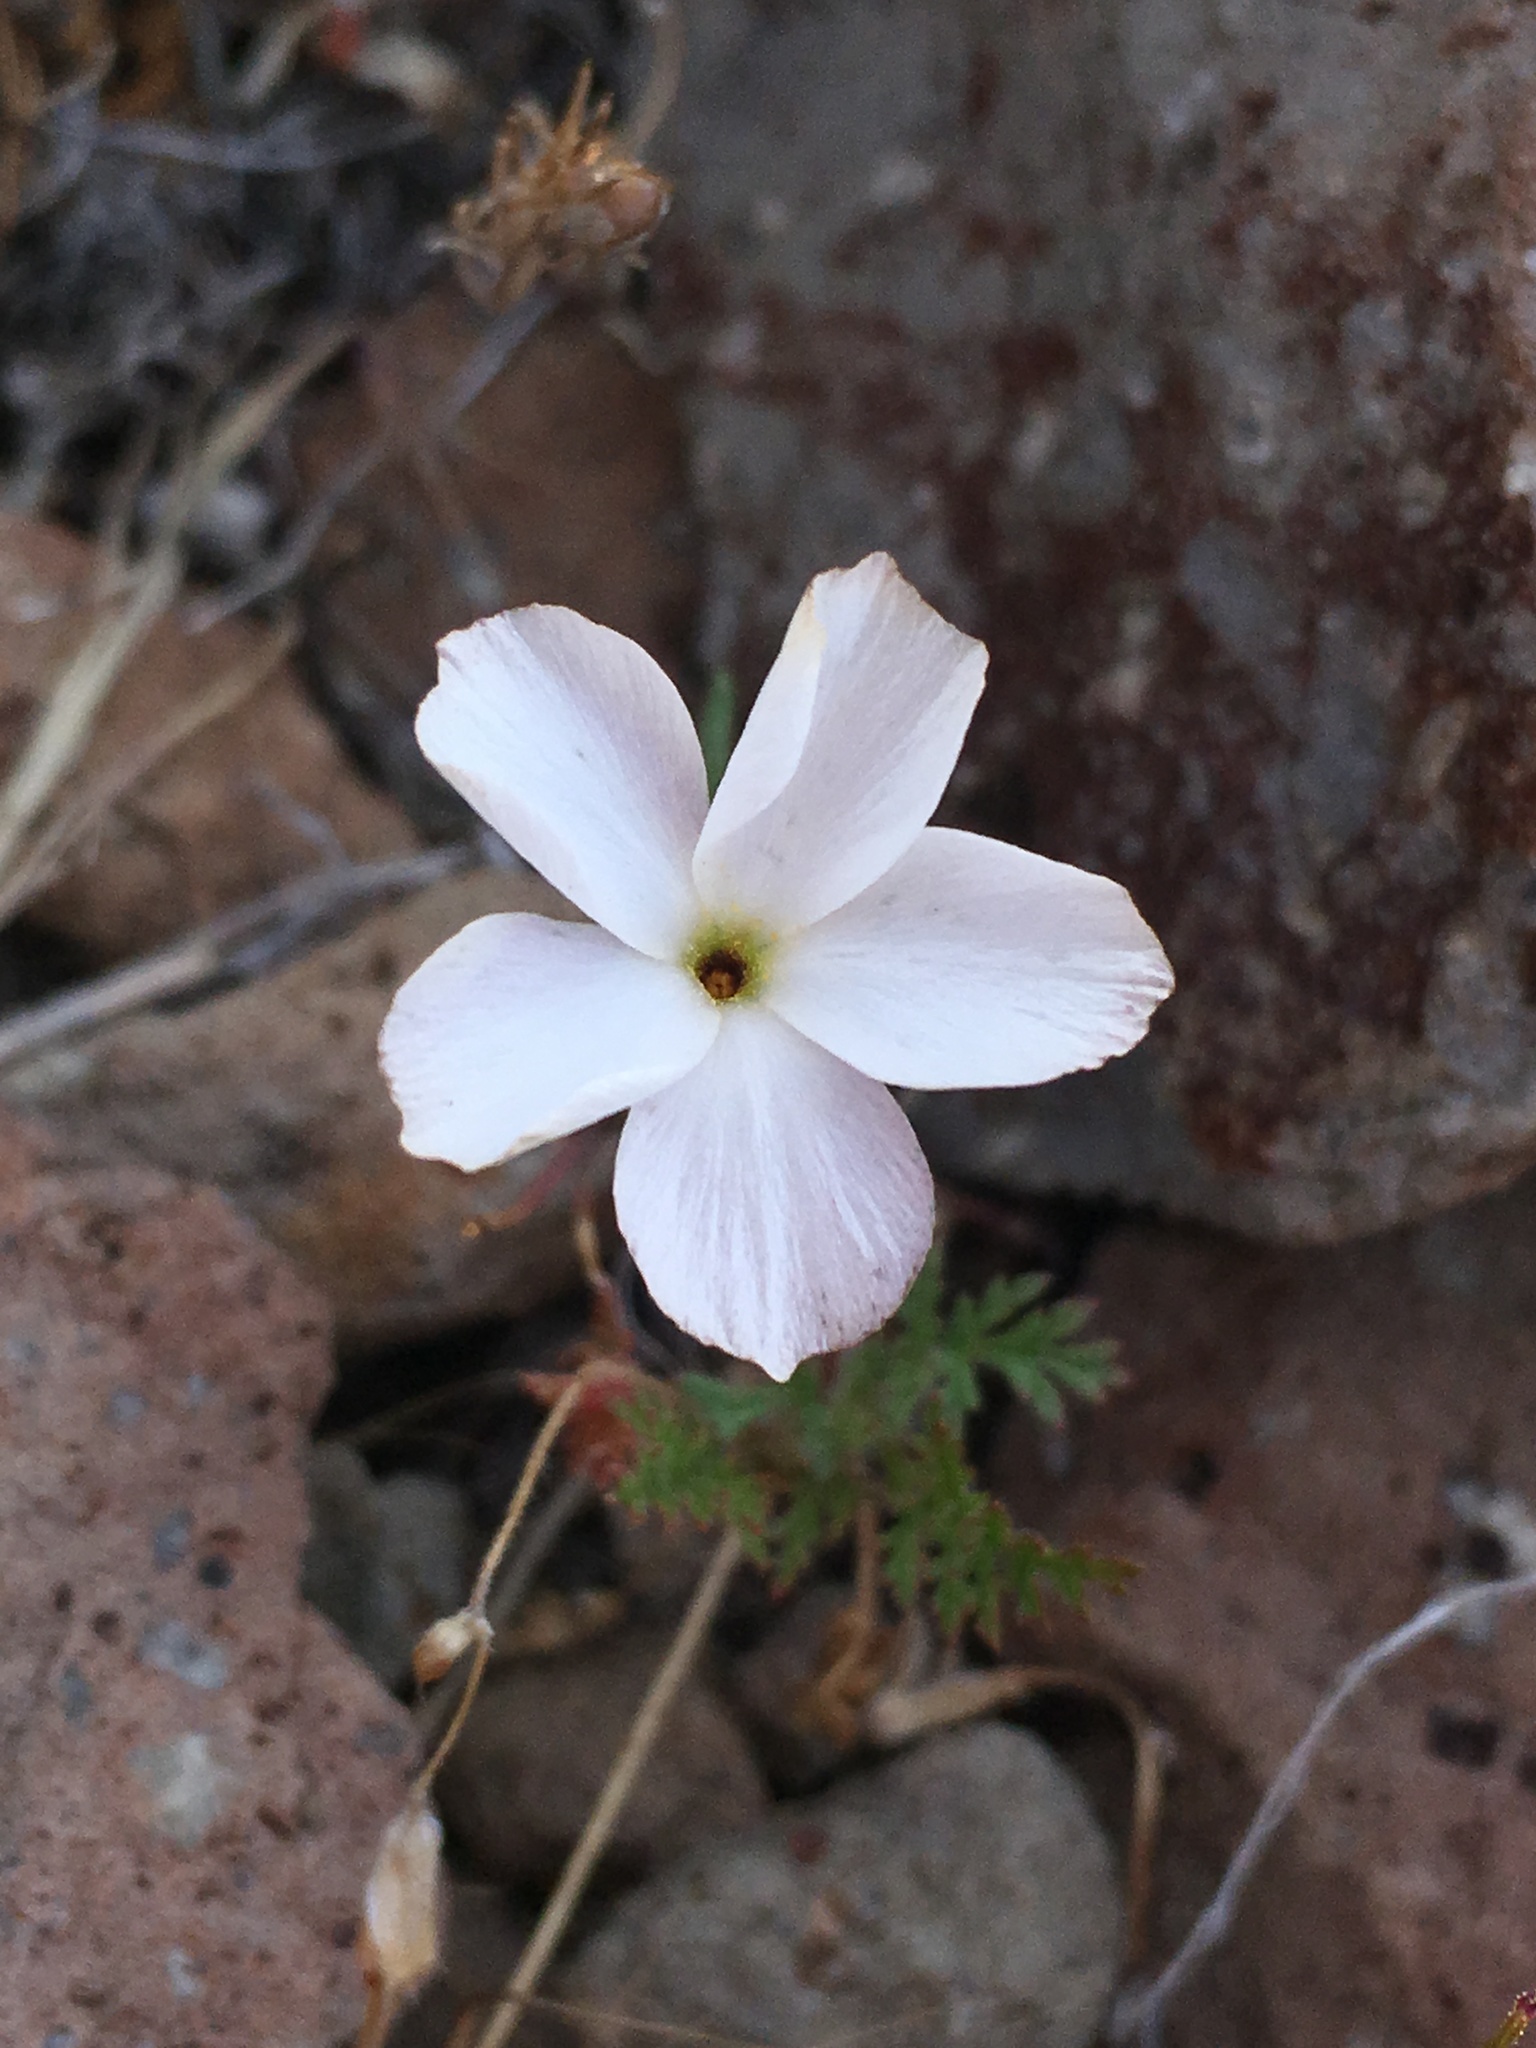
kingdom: Plantae
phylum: Tracheophyta
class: Magnoliopsida
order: Ericales
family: Polemoniaceae
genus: Linanthus
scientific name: Linanthus dichotomus
